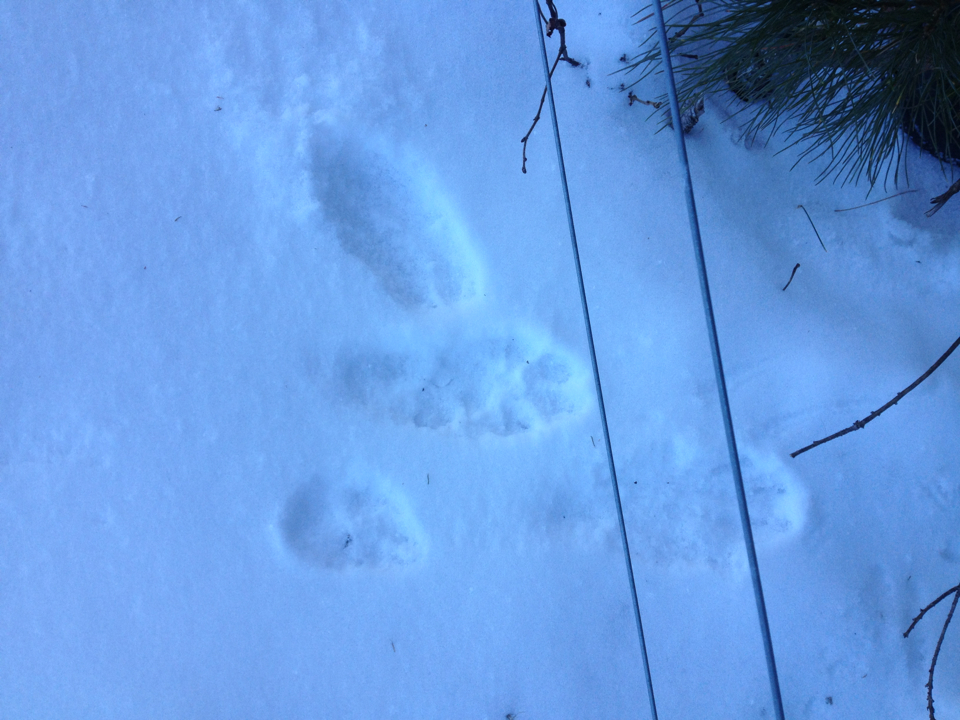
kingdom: Animalia
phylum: Chordata
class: Mammalia
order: Carnivora
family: Canidae
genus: Canis
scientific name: Canis latrans
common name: Coyote
